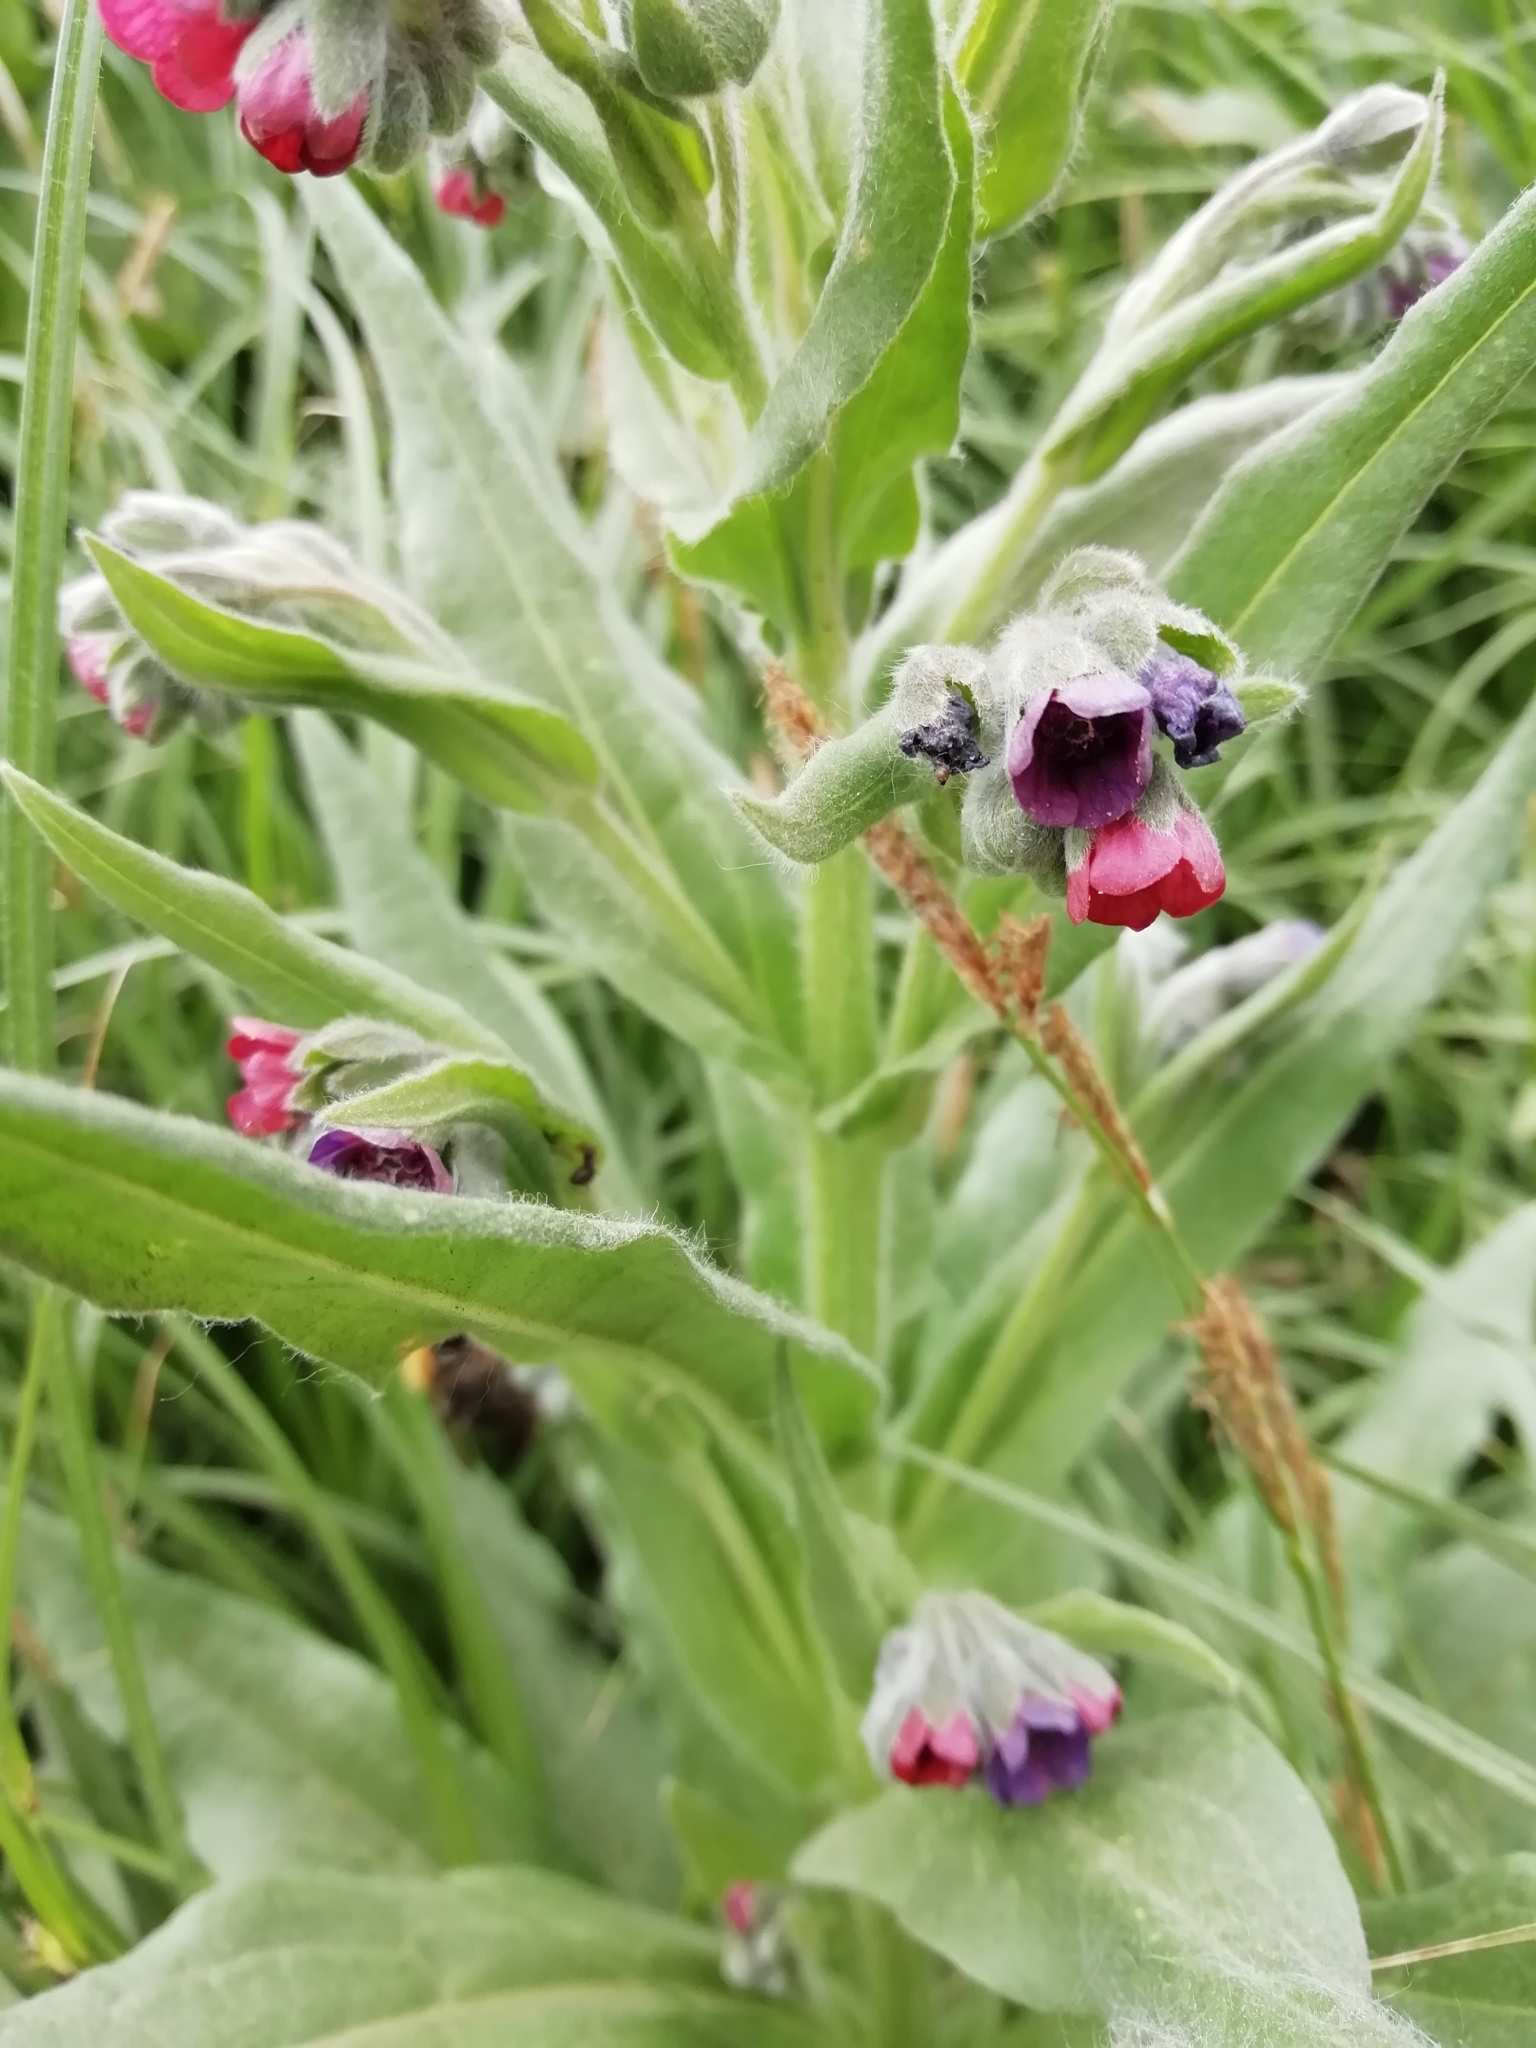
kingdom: Plantae
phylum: Tracheophyta
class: Magnoliopsida
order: Boraginales
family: Boraginaceae
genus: Cynoglossum
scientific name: Cynoglossum officinale
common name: Hound's-tongue
